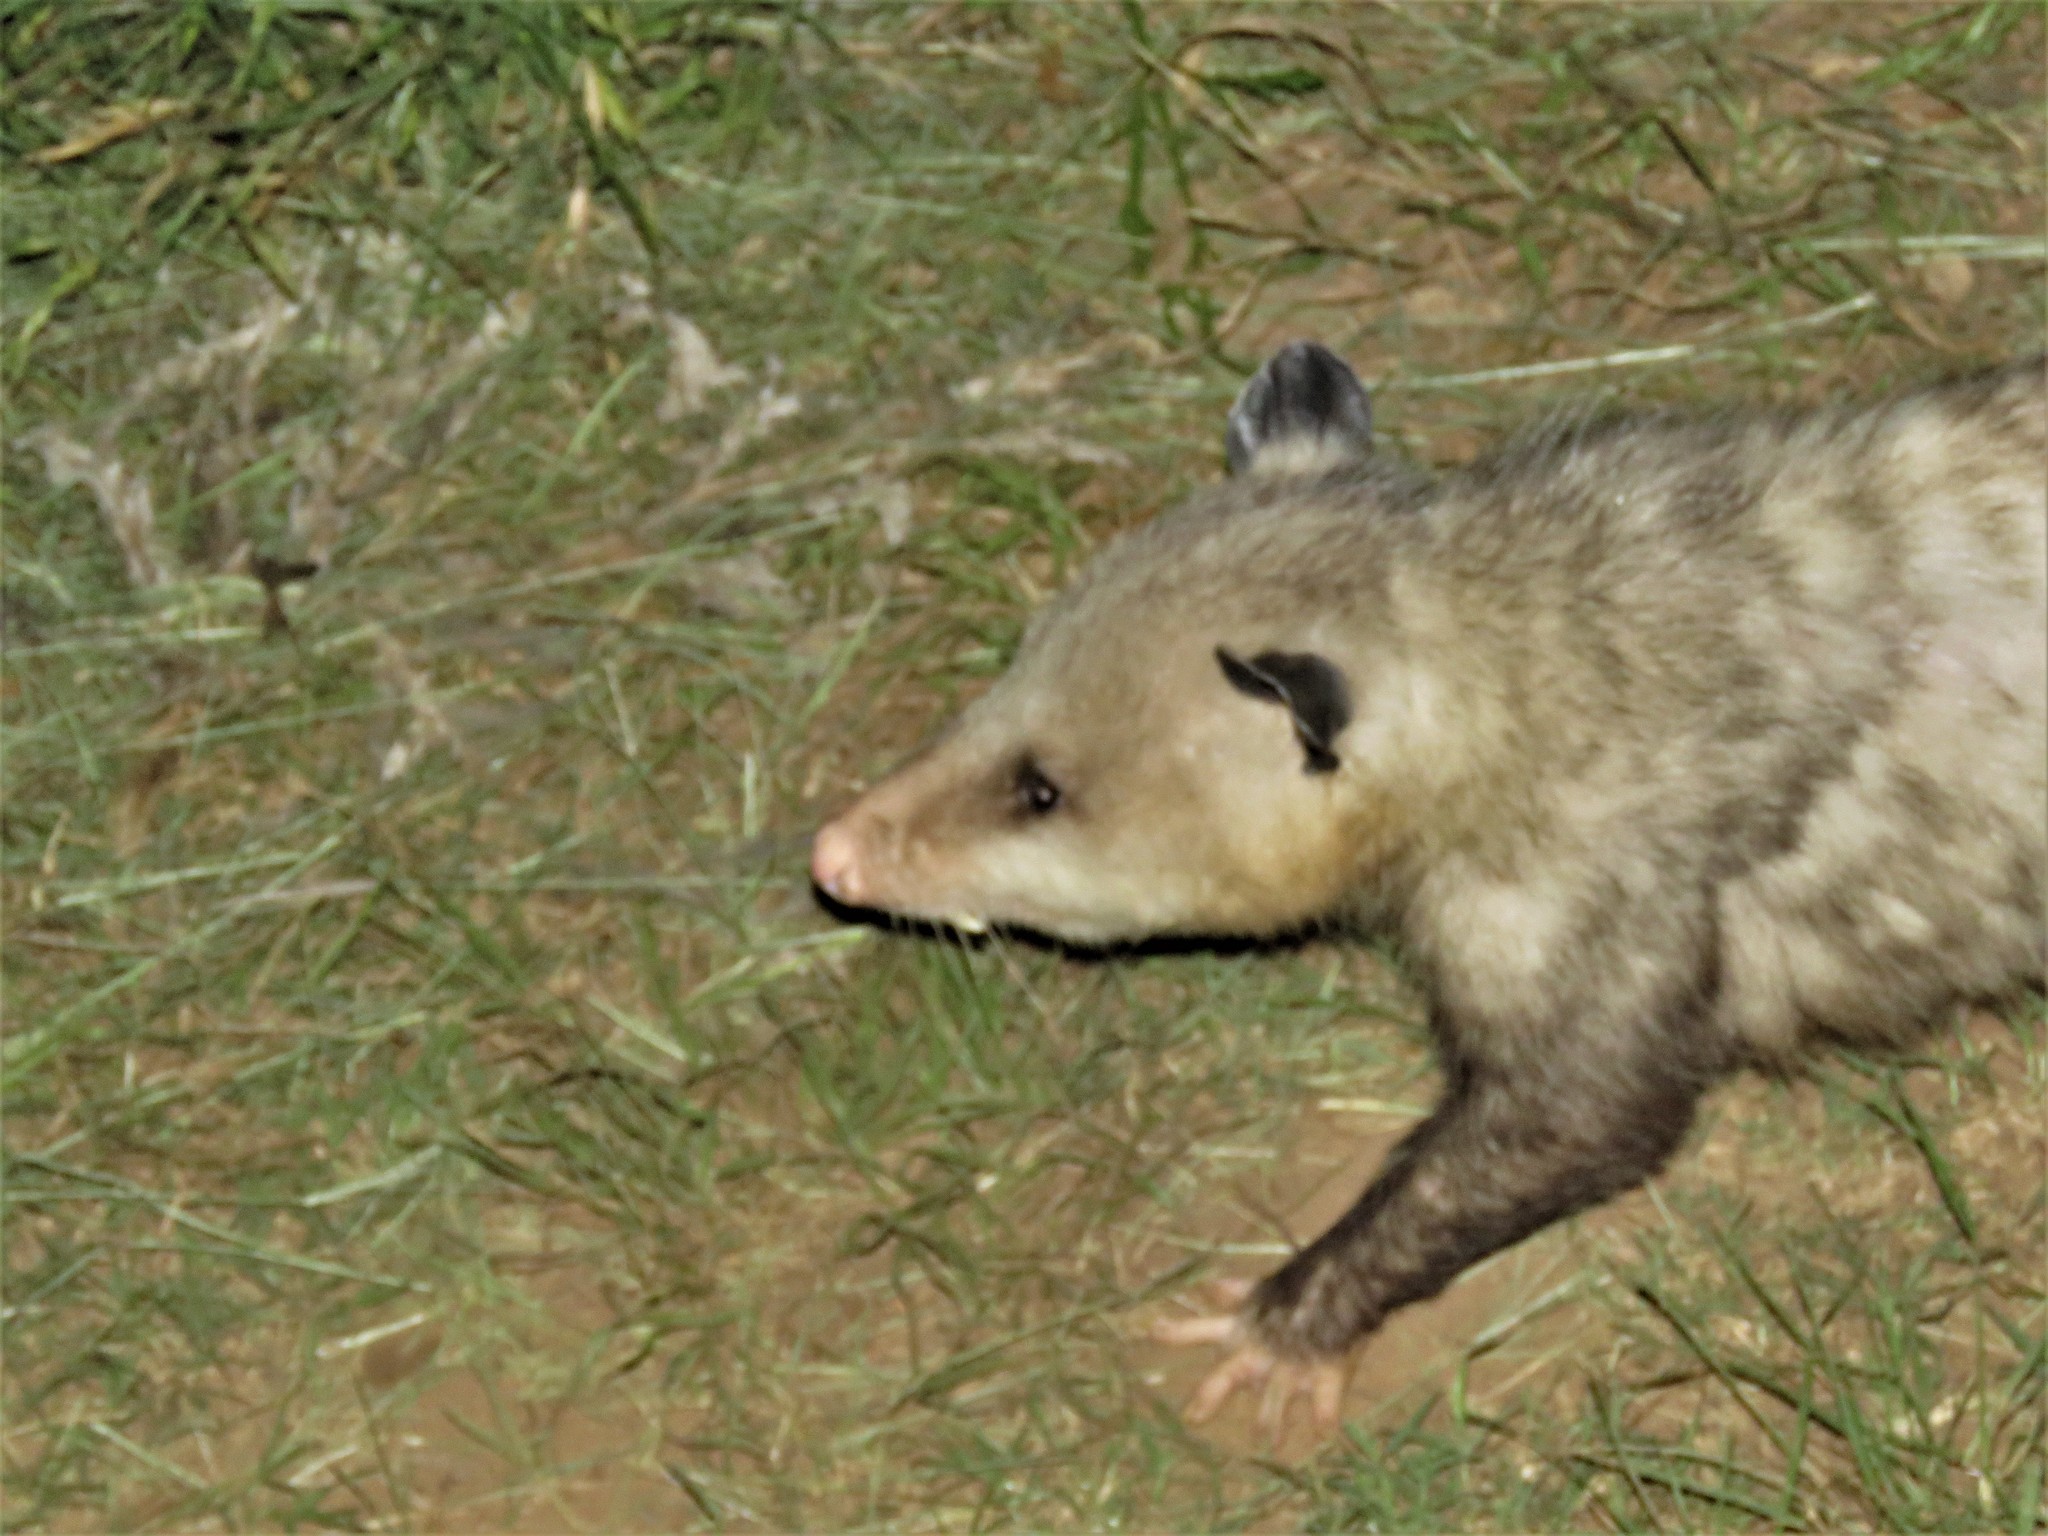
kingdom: Animalia
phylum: Chordata
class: Mammalia
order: Didelphimorphia
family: Didelphidae
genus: Didelphis
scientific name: Didelphis virginiana
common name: Virginia opossum
